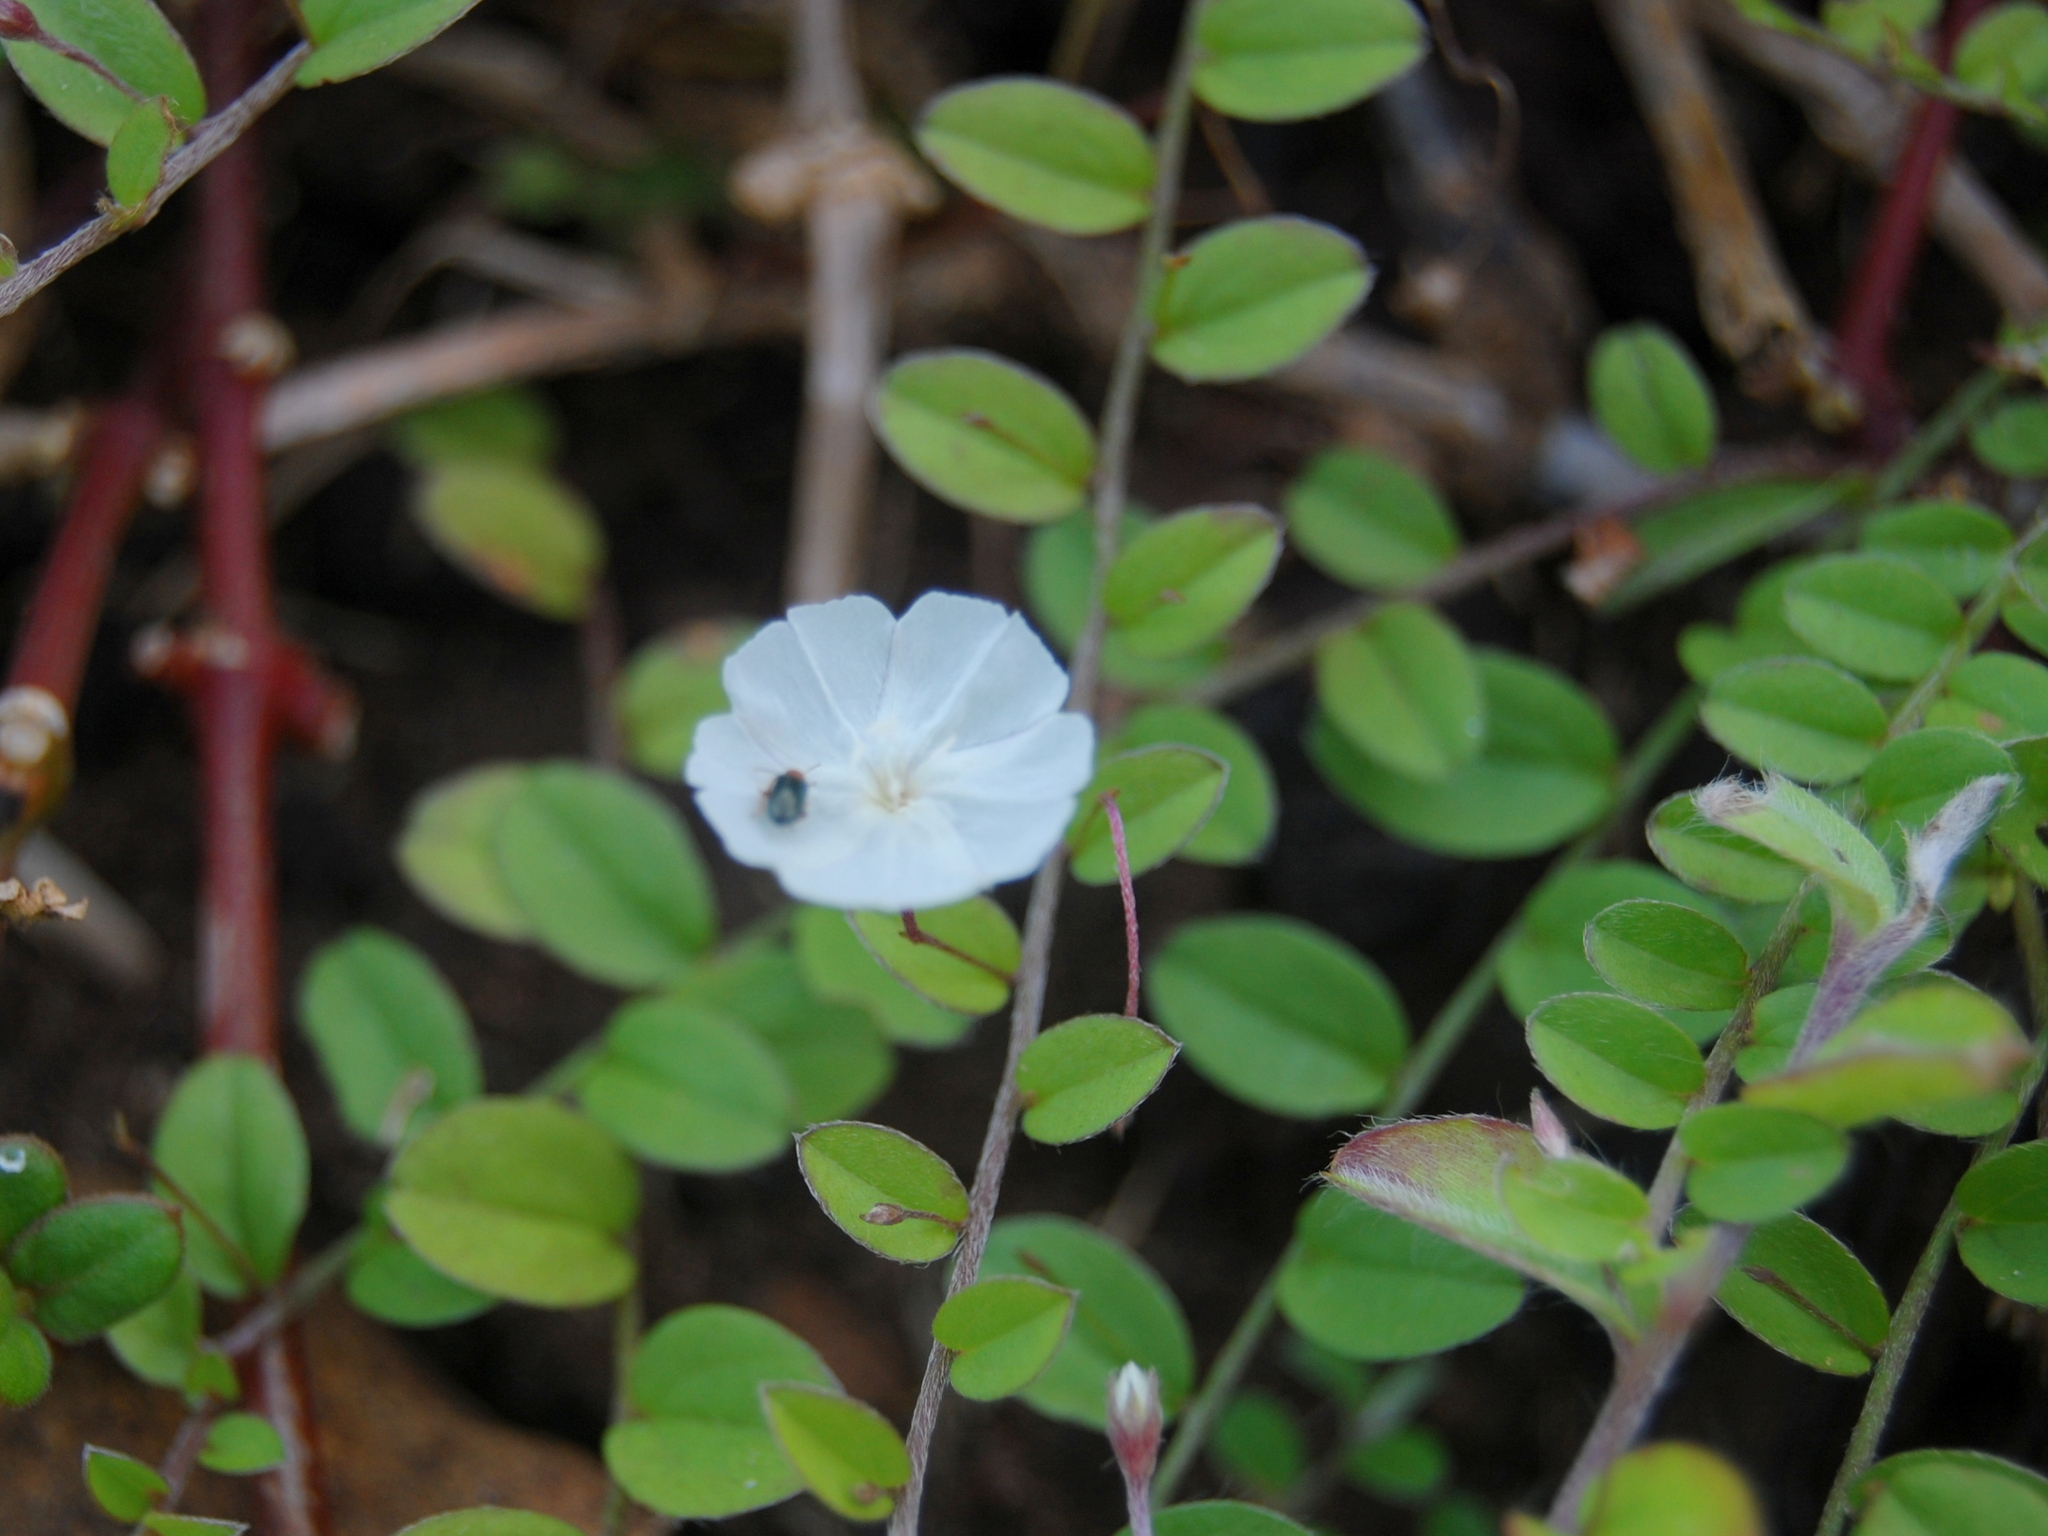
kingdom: Plantae
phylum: Tracheophyta
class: Magnoliopsida
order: Solanales
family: Convolvulaceae
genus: Evolvulus
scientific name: Evolvulus pusillus
